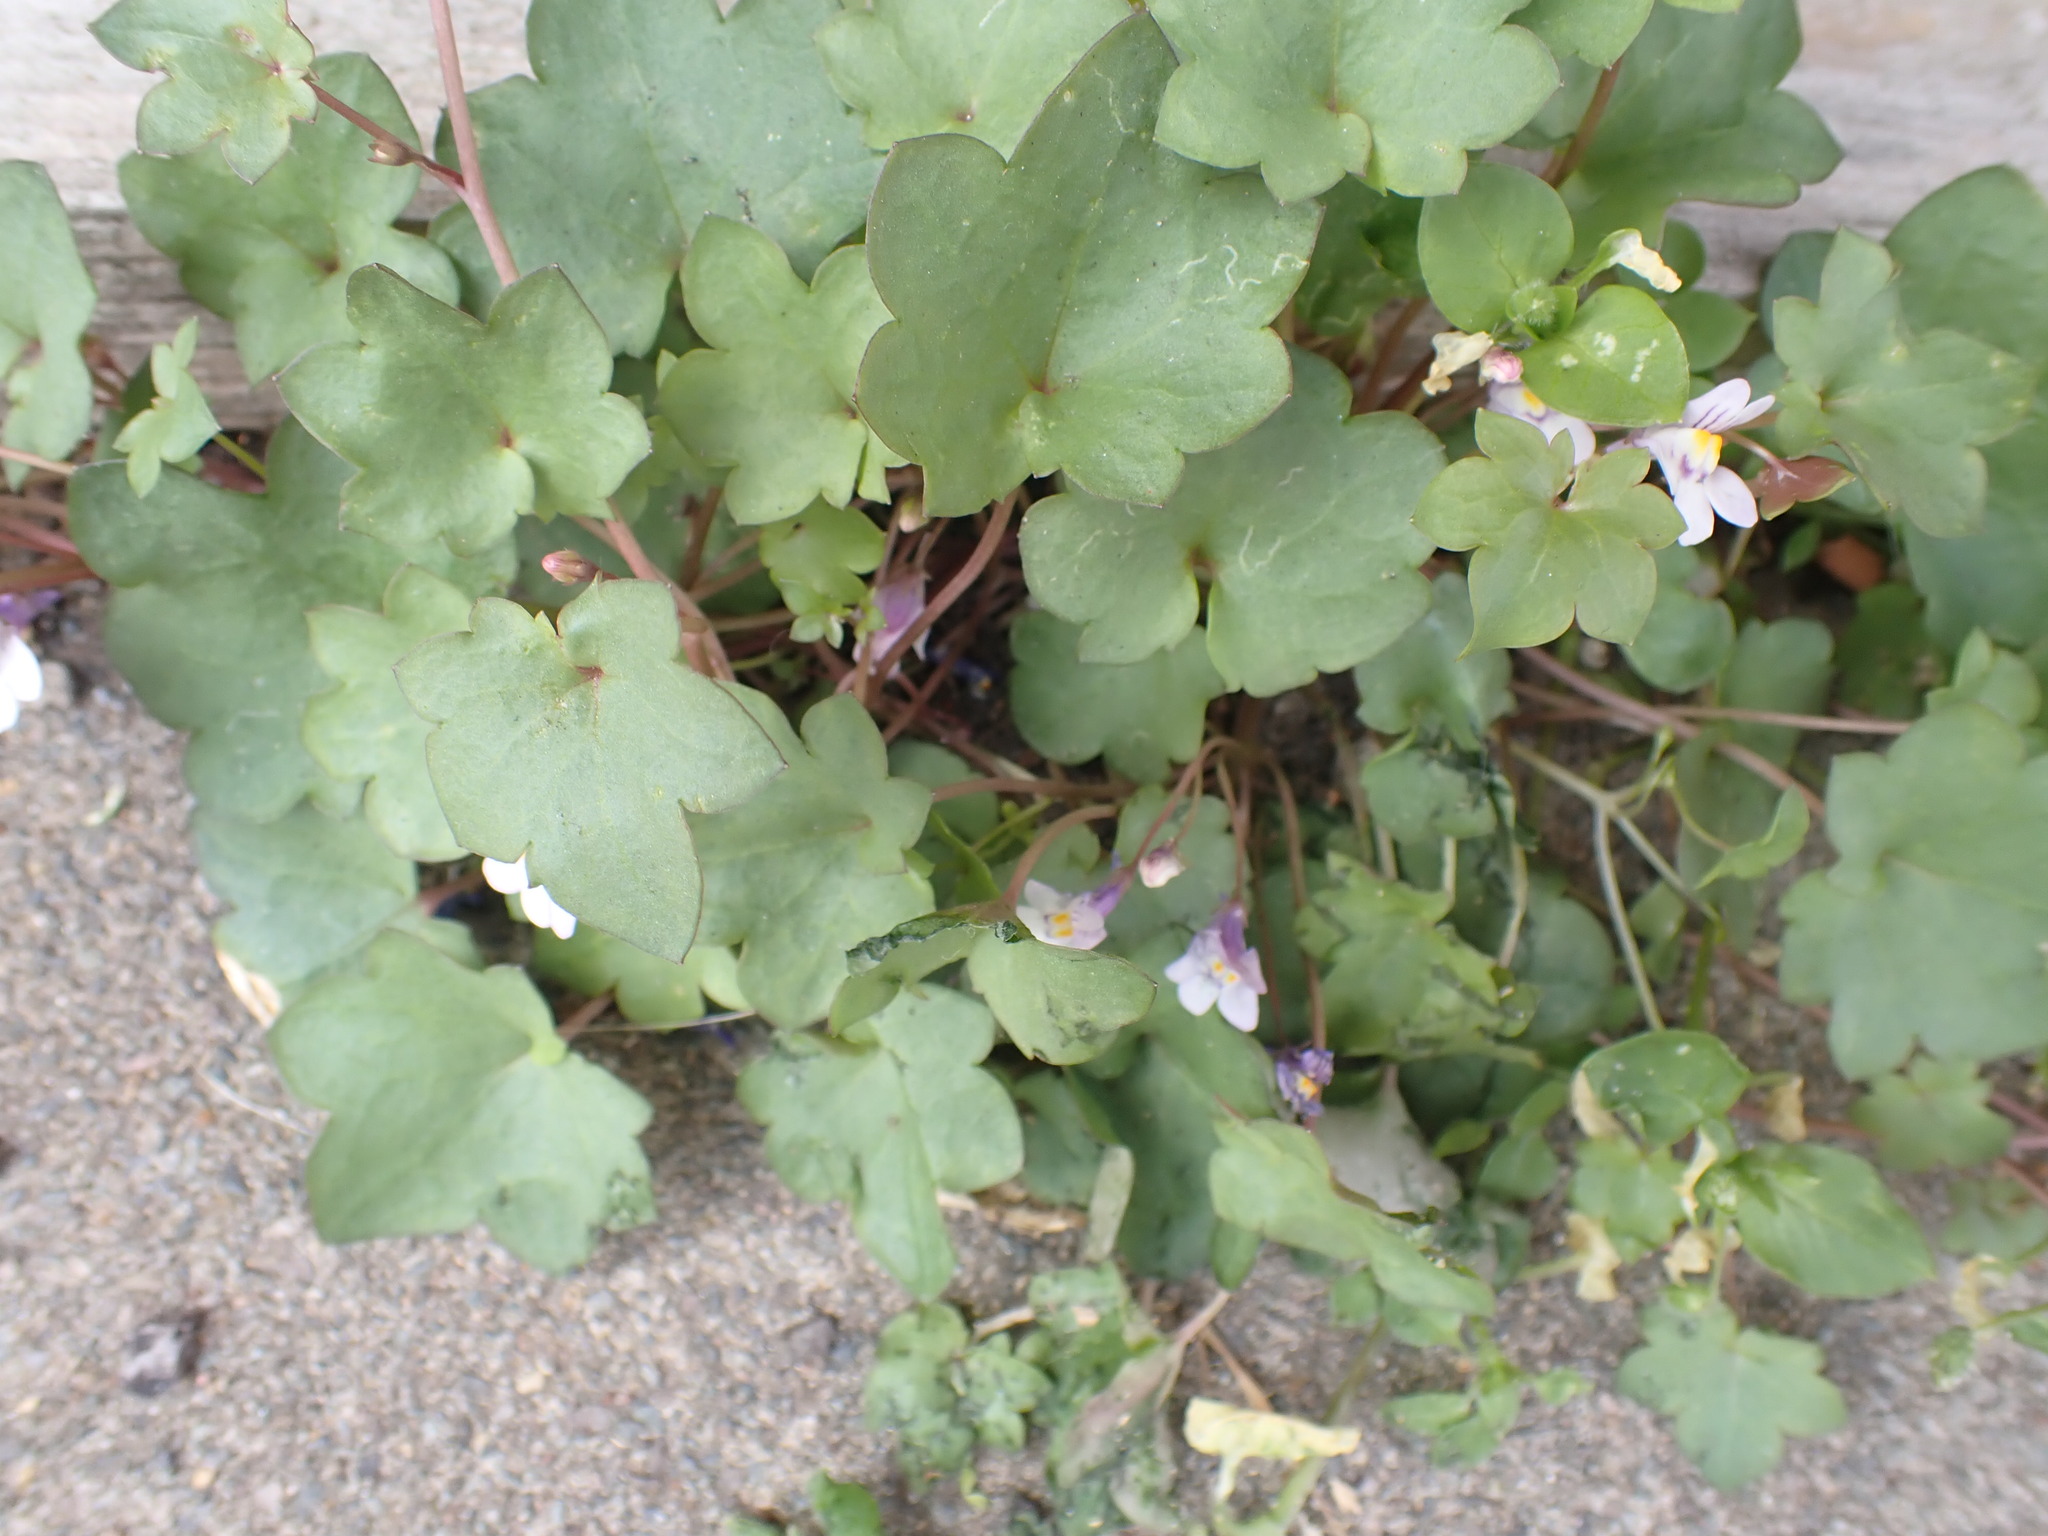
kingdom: Plantae
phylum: Tracheophyta
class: Magnoliopsida
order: Lamiales
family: Plantaginaceae
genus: Cymbalaria
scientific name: Cymbalaria muralis
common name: Ivy-leaved toadflax
